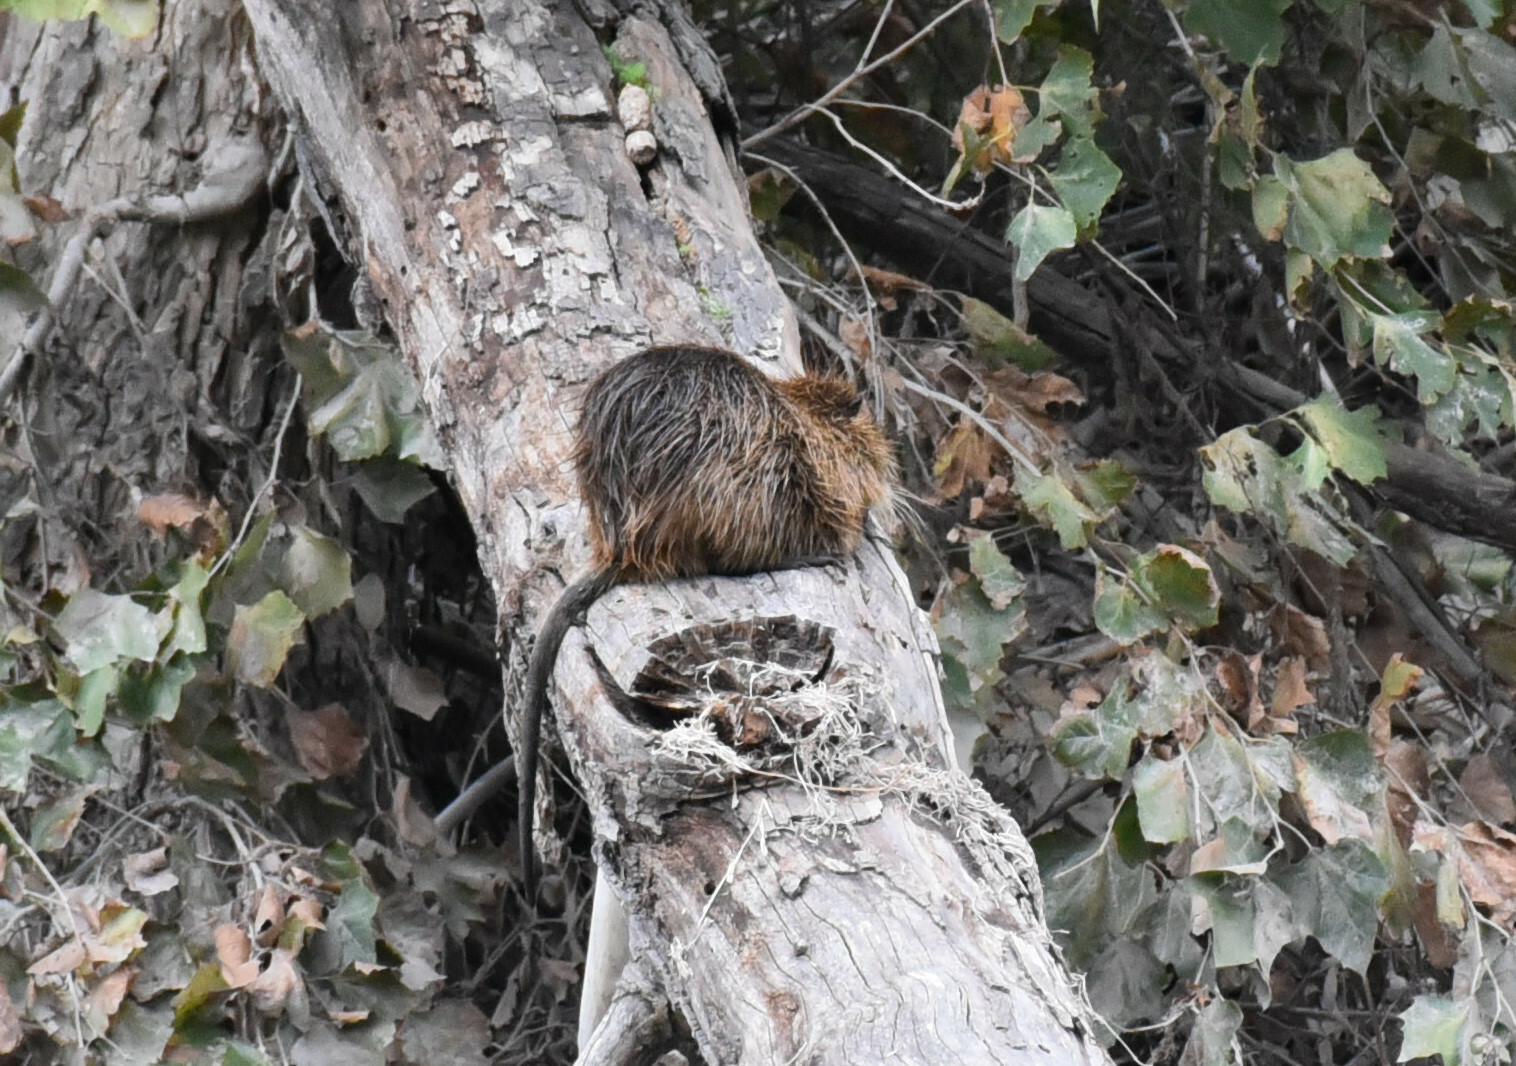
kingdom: Animalia
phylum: Chordata
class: Mammalia
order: Rodentia
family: Myocastoridae
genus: Myocastor
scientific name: Myocastor coypus
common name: Coypu
